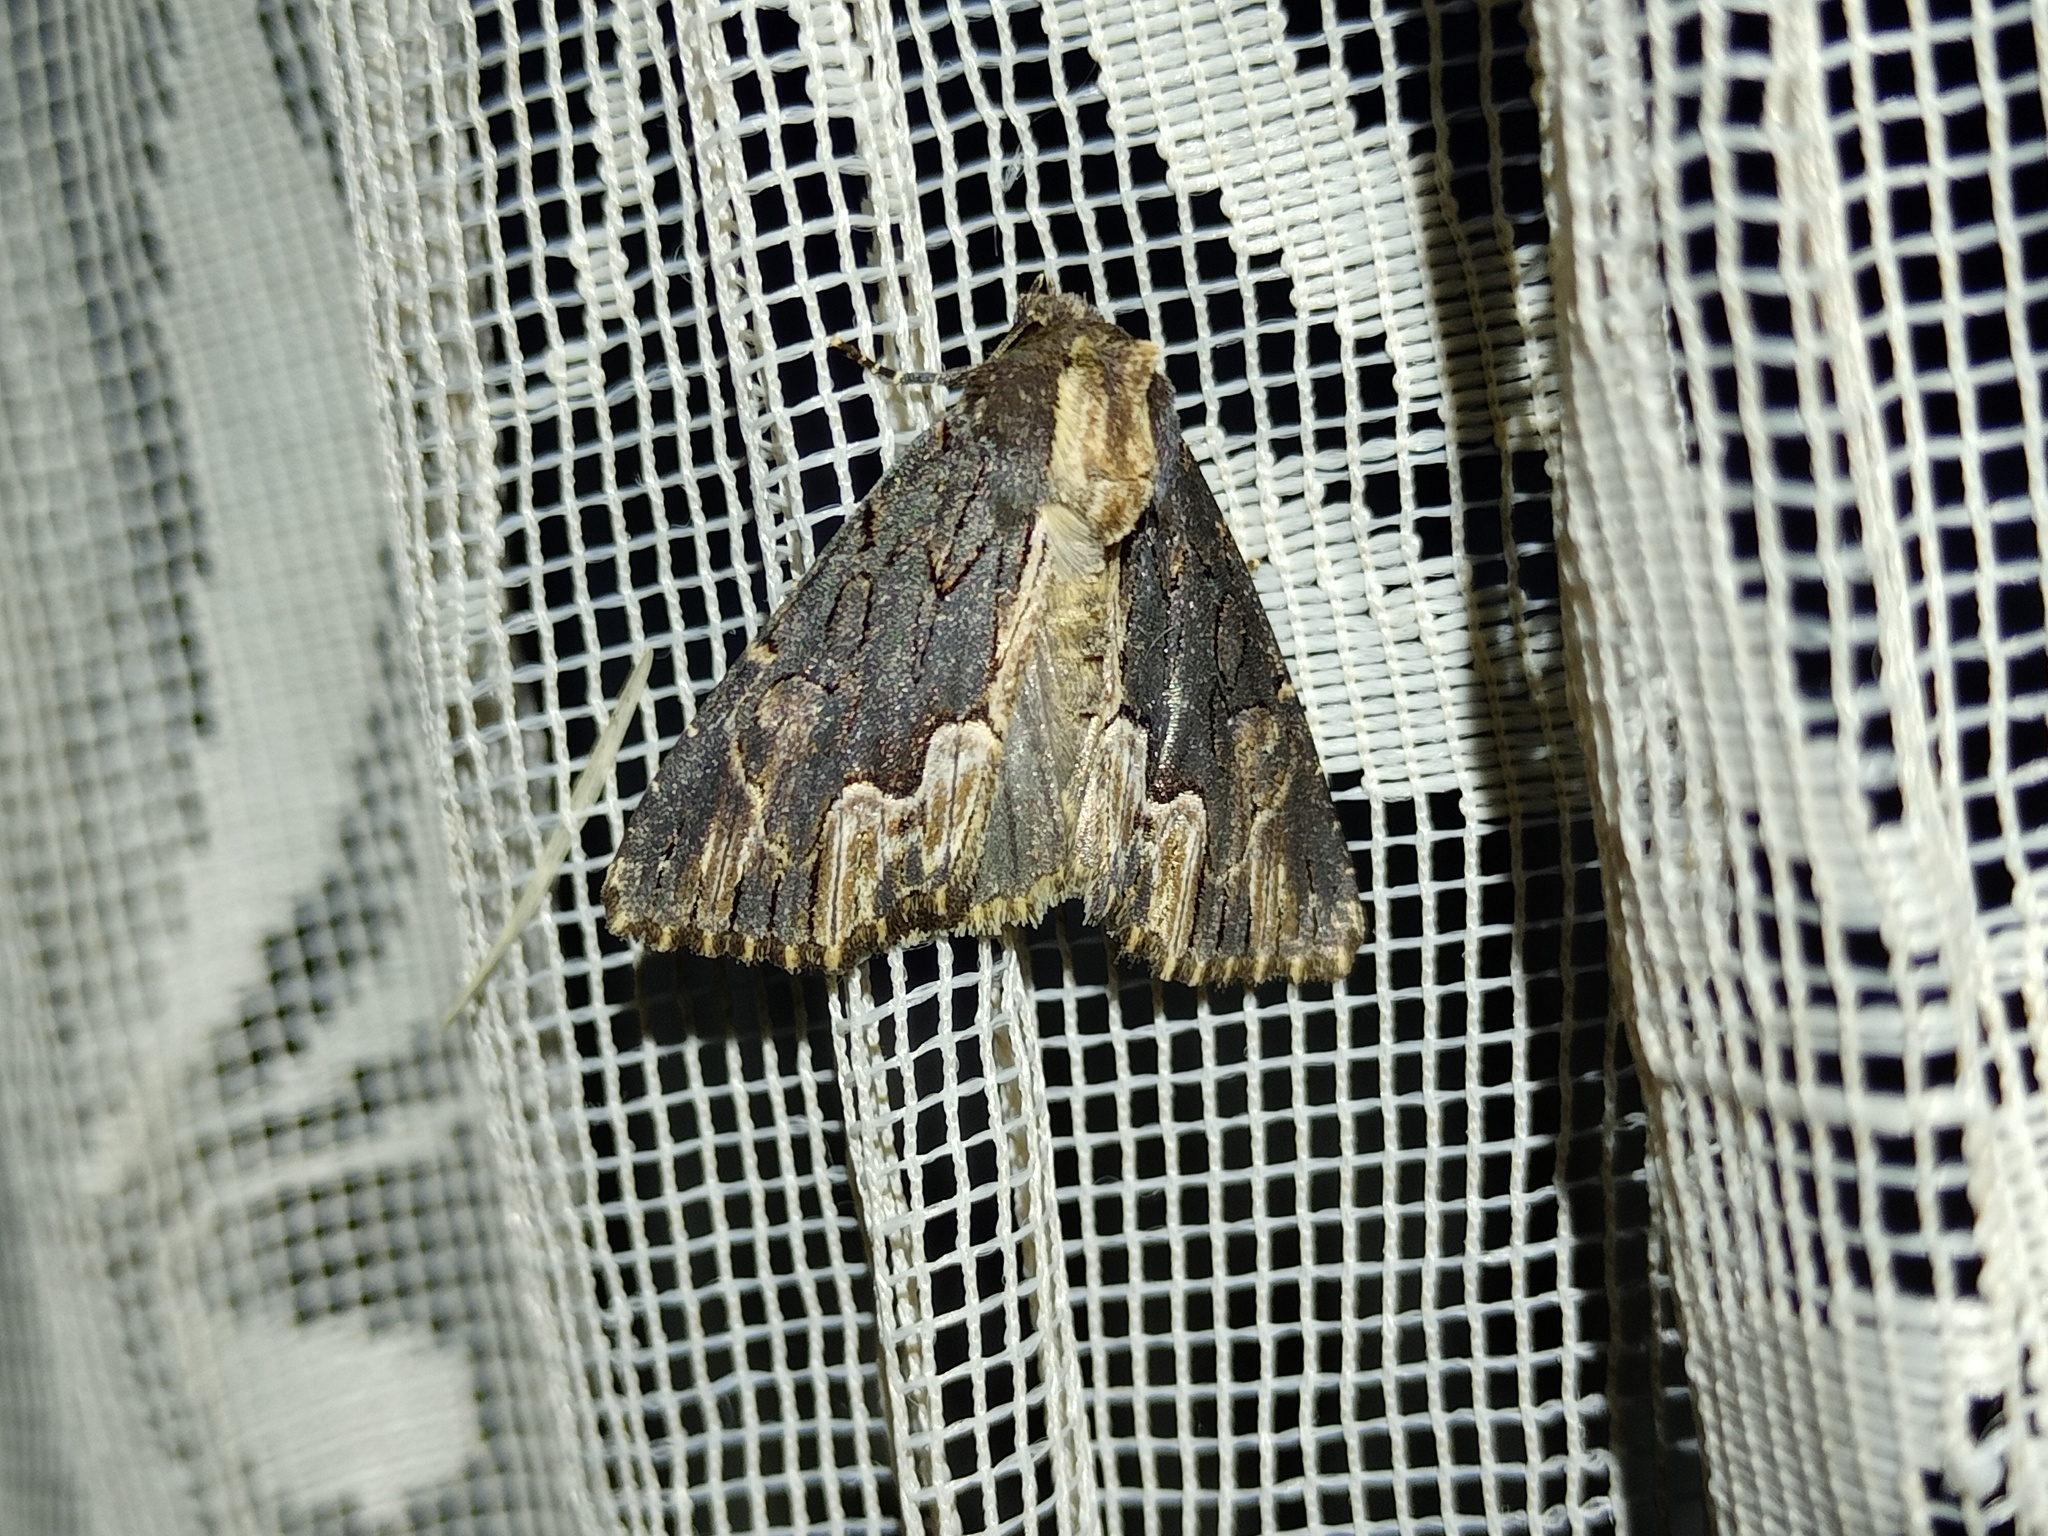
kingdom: Animalia
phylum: Arthropoda
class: Insecta
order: Lepidoptera
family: Noctuidae
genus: Dypterygia
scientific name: Dypterygia scabriuscula
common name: Bird's wing
